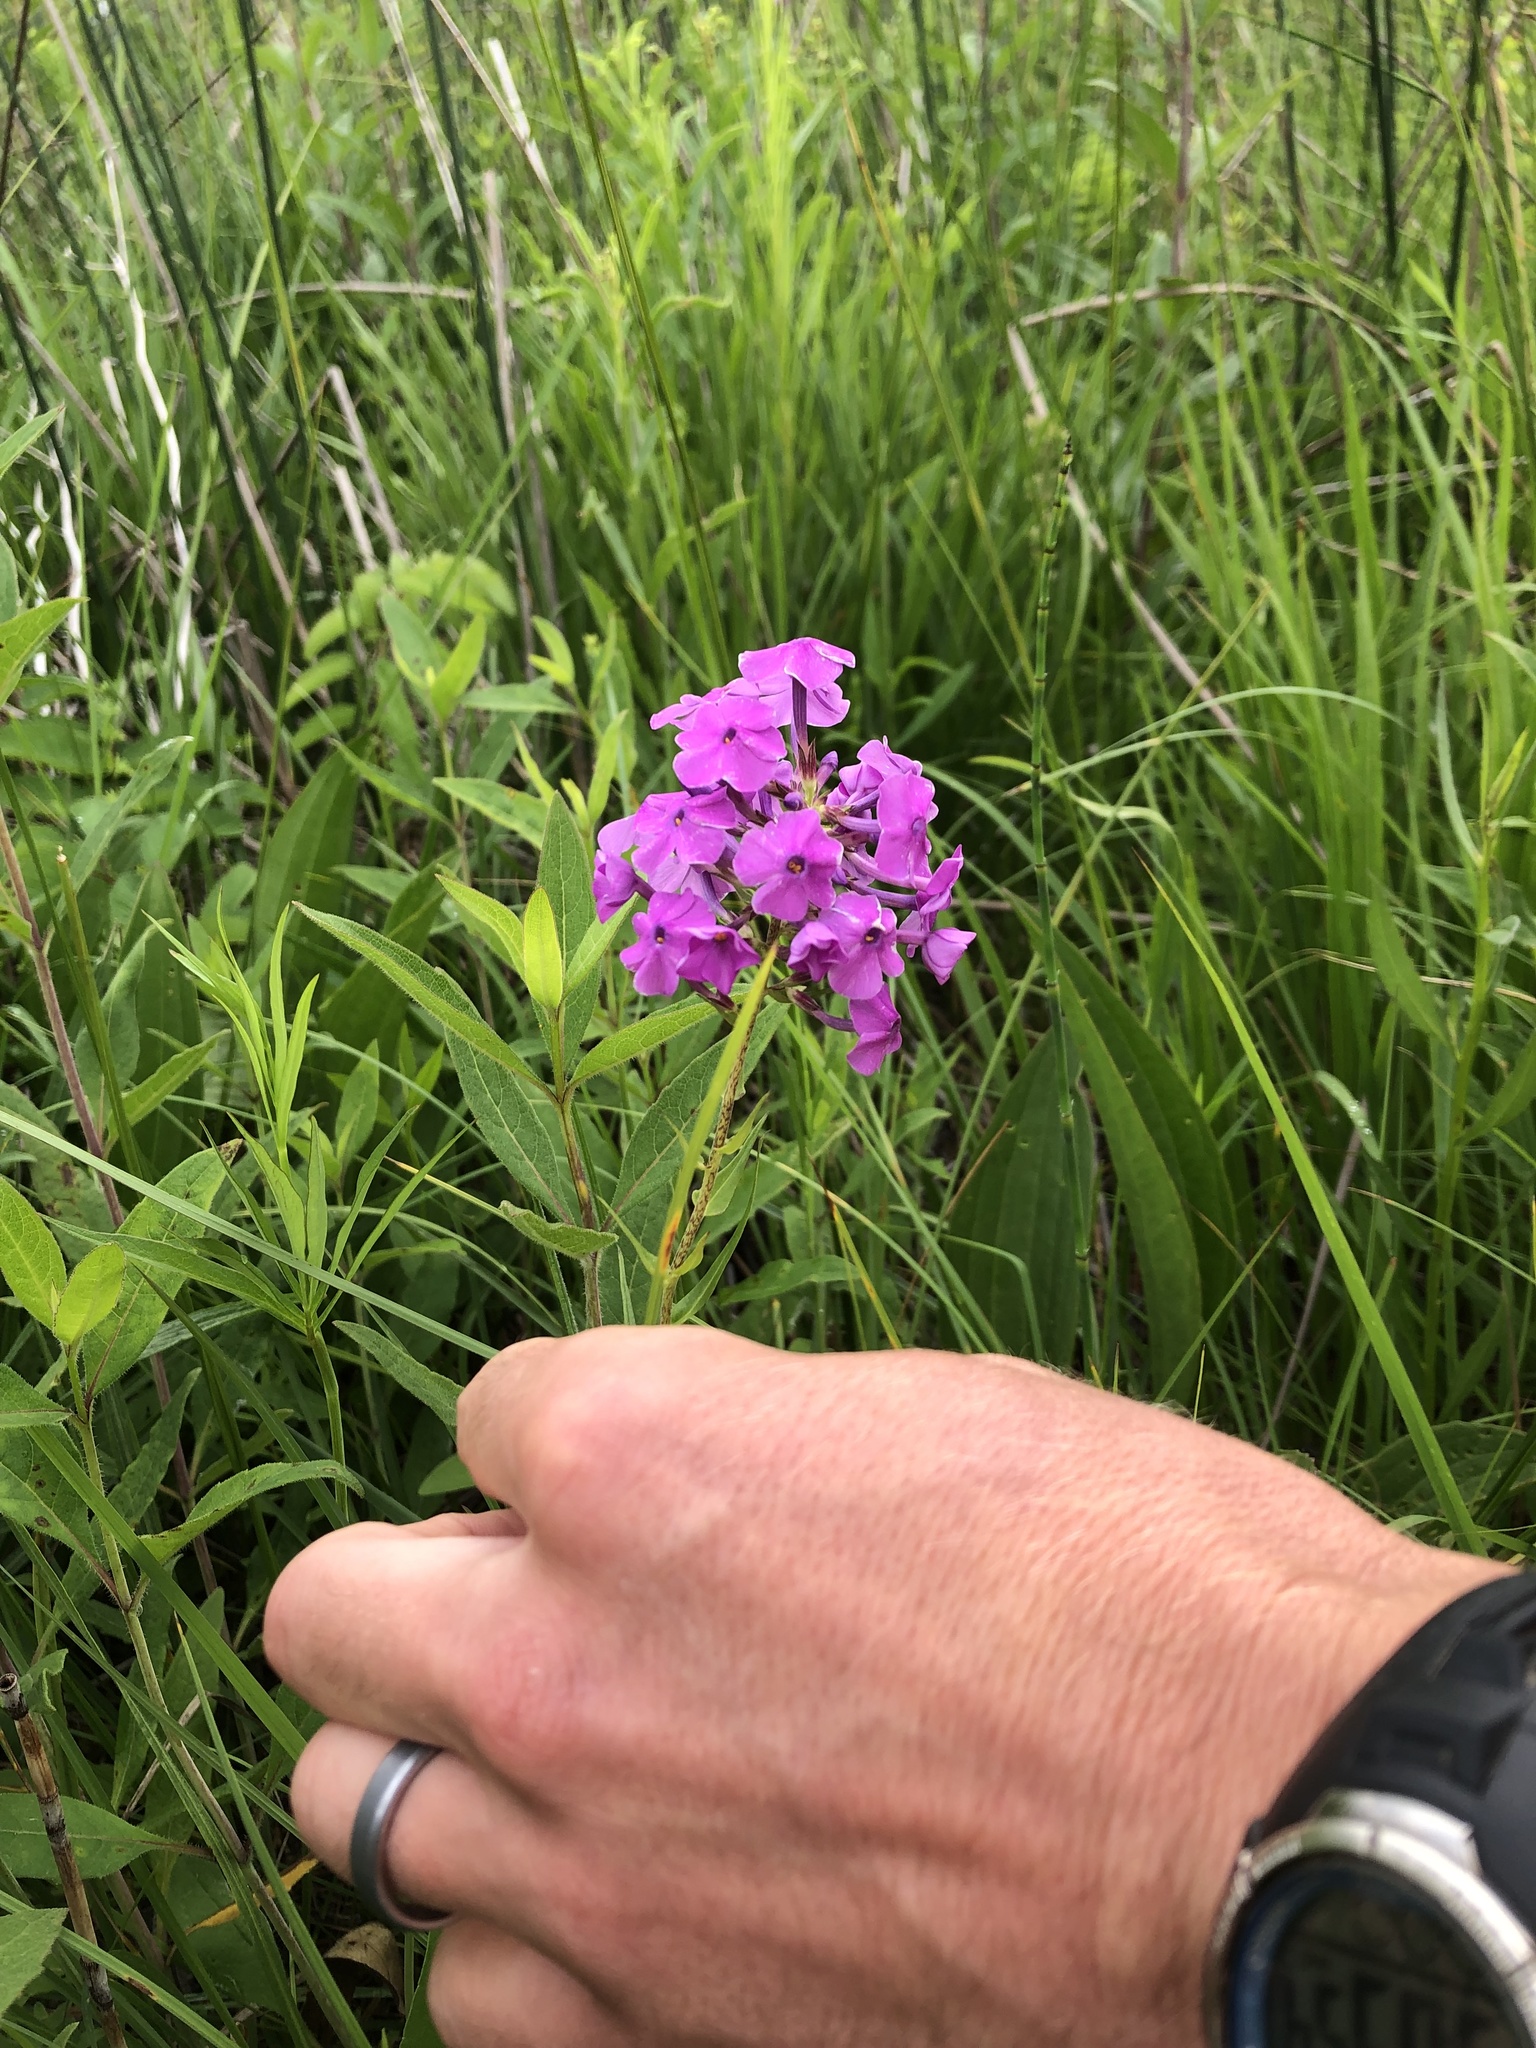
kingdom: Plantae
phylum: Tracheophyta
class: Magnoliopsida
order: Ericales
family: Polemoniaceae
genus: Phlox
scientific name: Phlox maculata
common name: Meadow phlox
